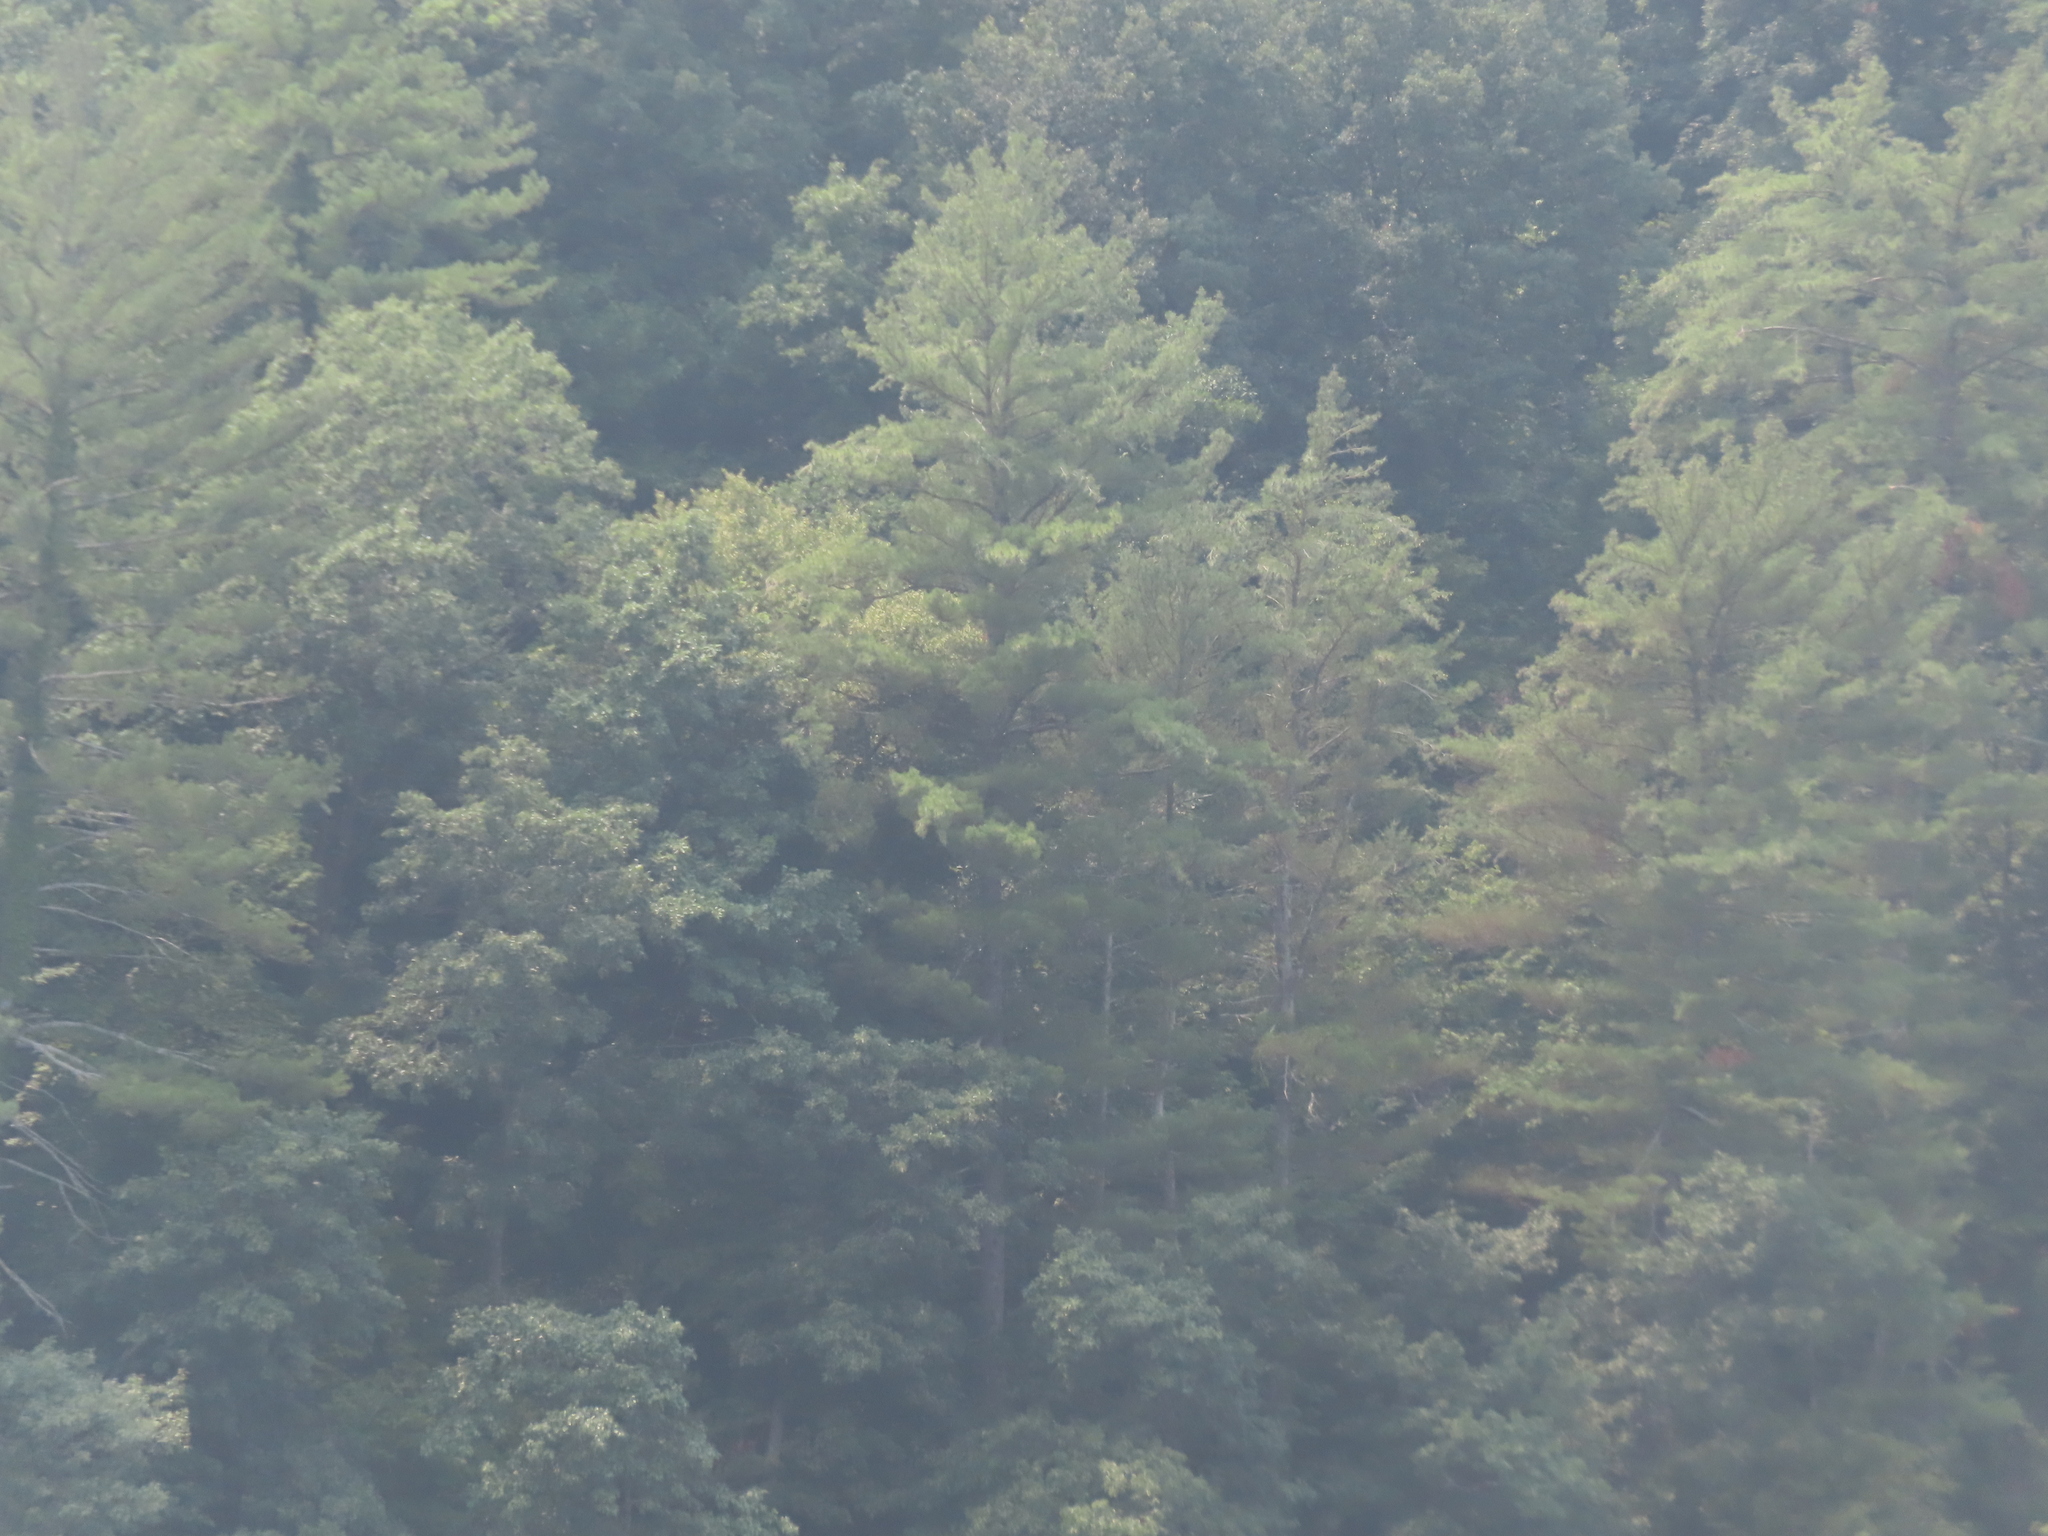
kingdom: Plantae
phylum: Tracheophyta
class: Pinopsida
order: Pinales
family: Pinaceae
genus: Pinus
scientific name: Pinus strobus
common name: Weymouth pine
